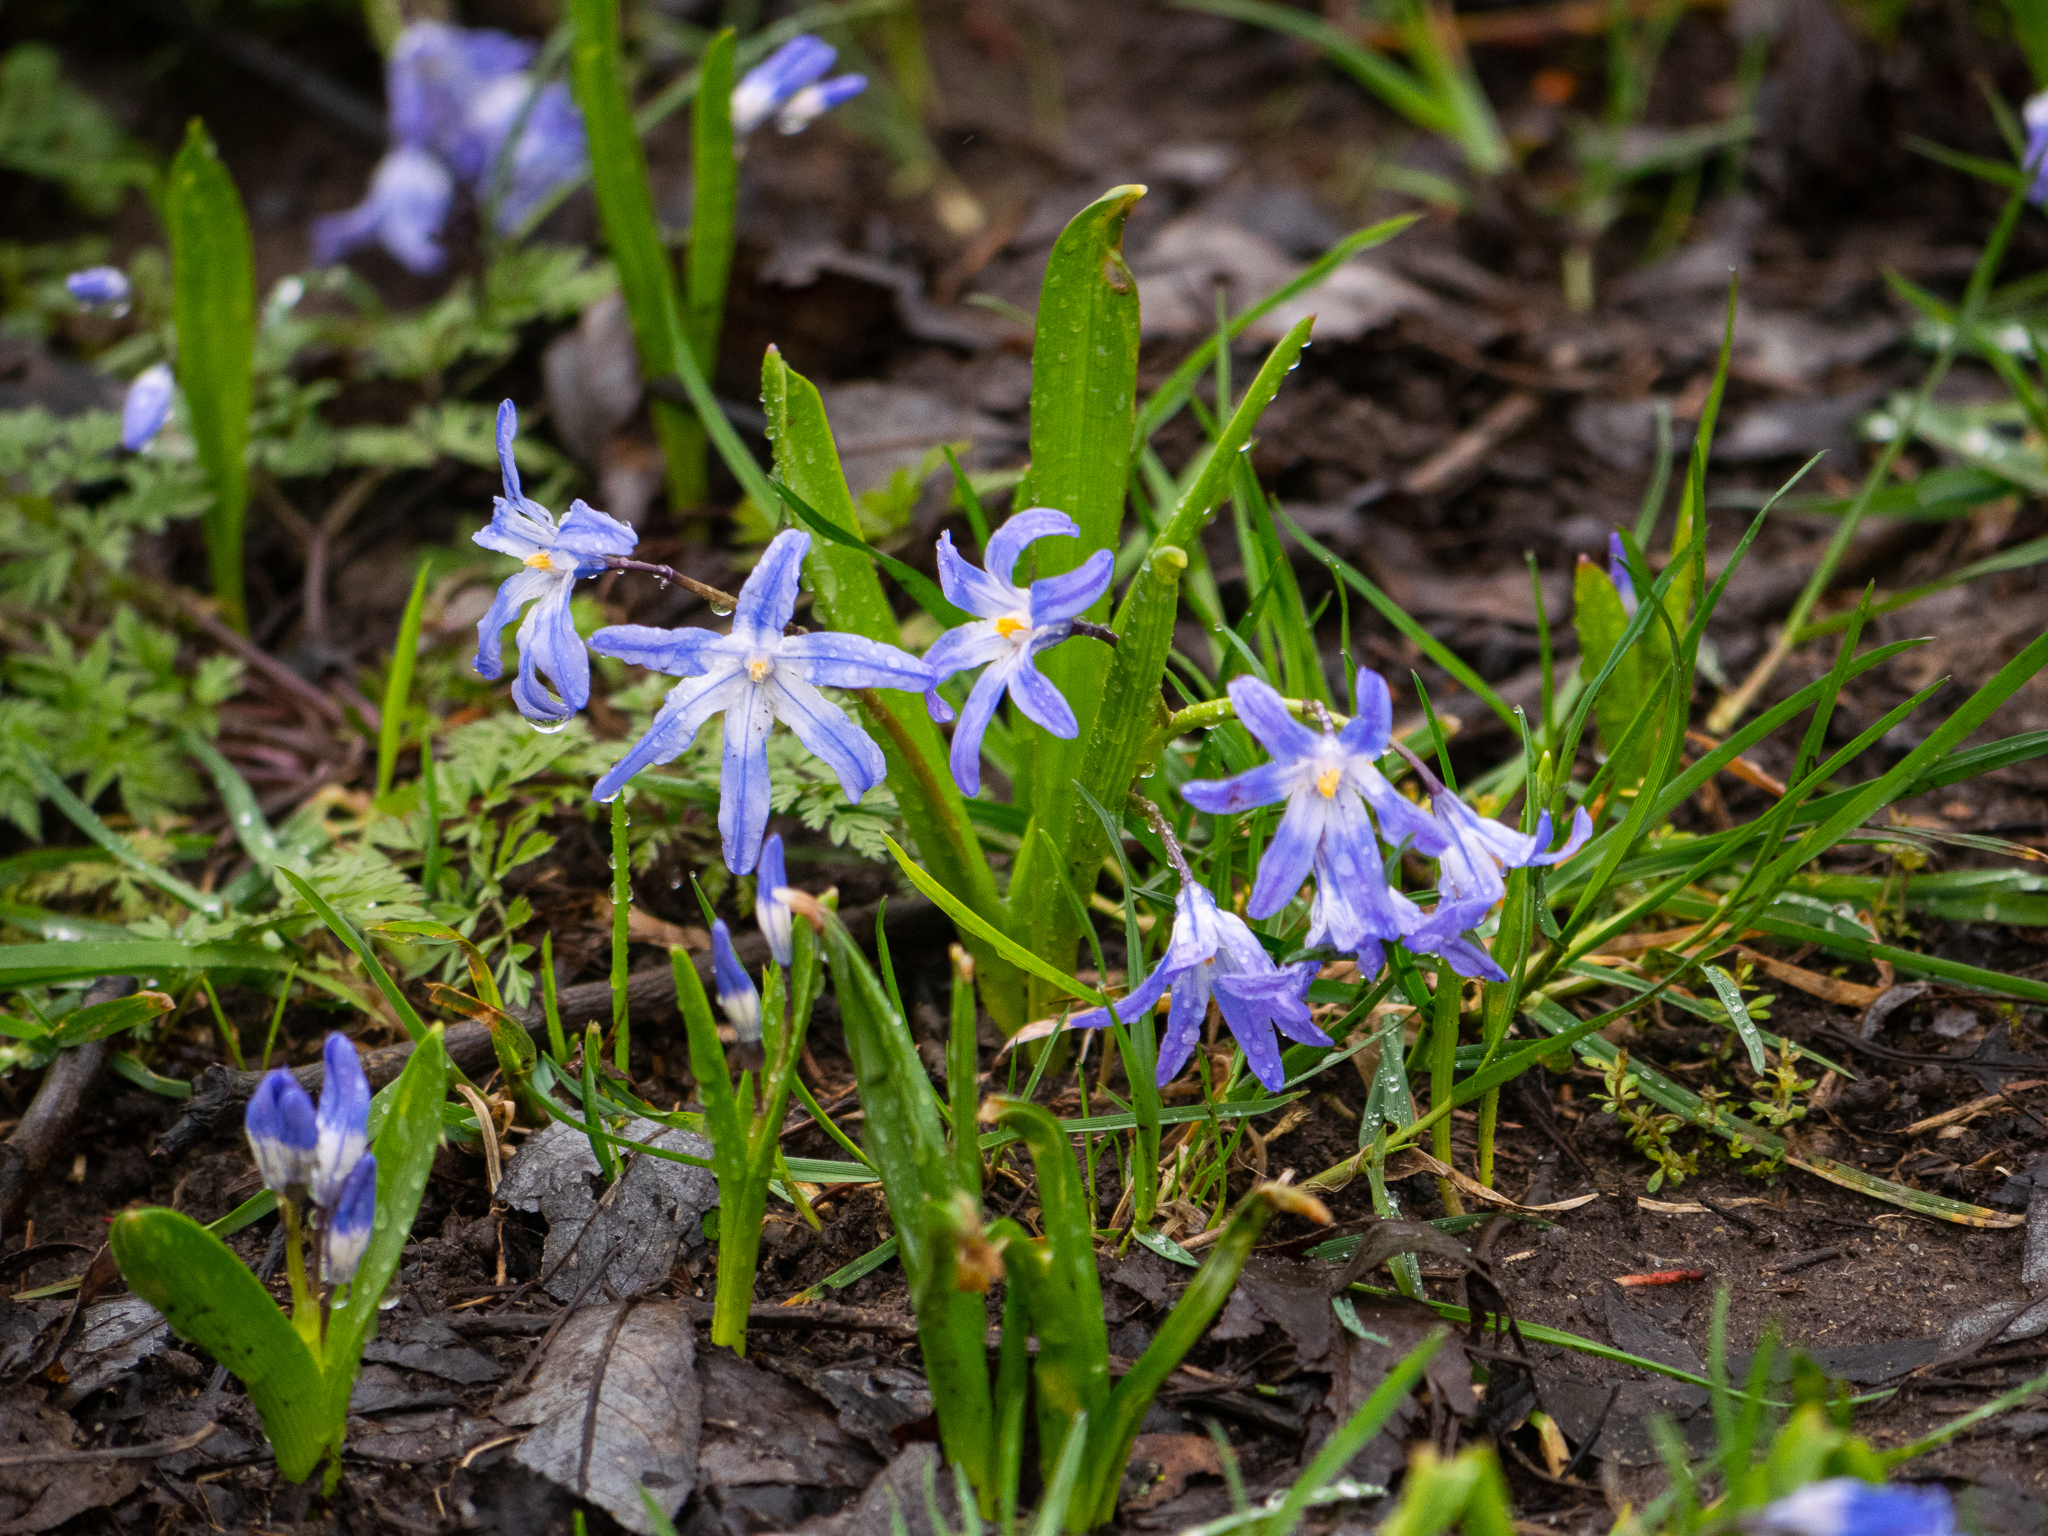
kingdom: Plantae
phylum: Tracheophyta
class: Liliopsida
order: Asparagales
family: Asparagaceae
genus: Scilla
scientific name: Scilla luciliae
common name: Boissier's glory-of-the-snow
